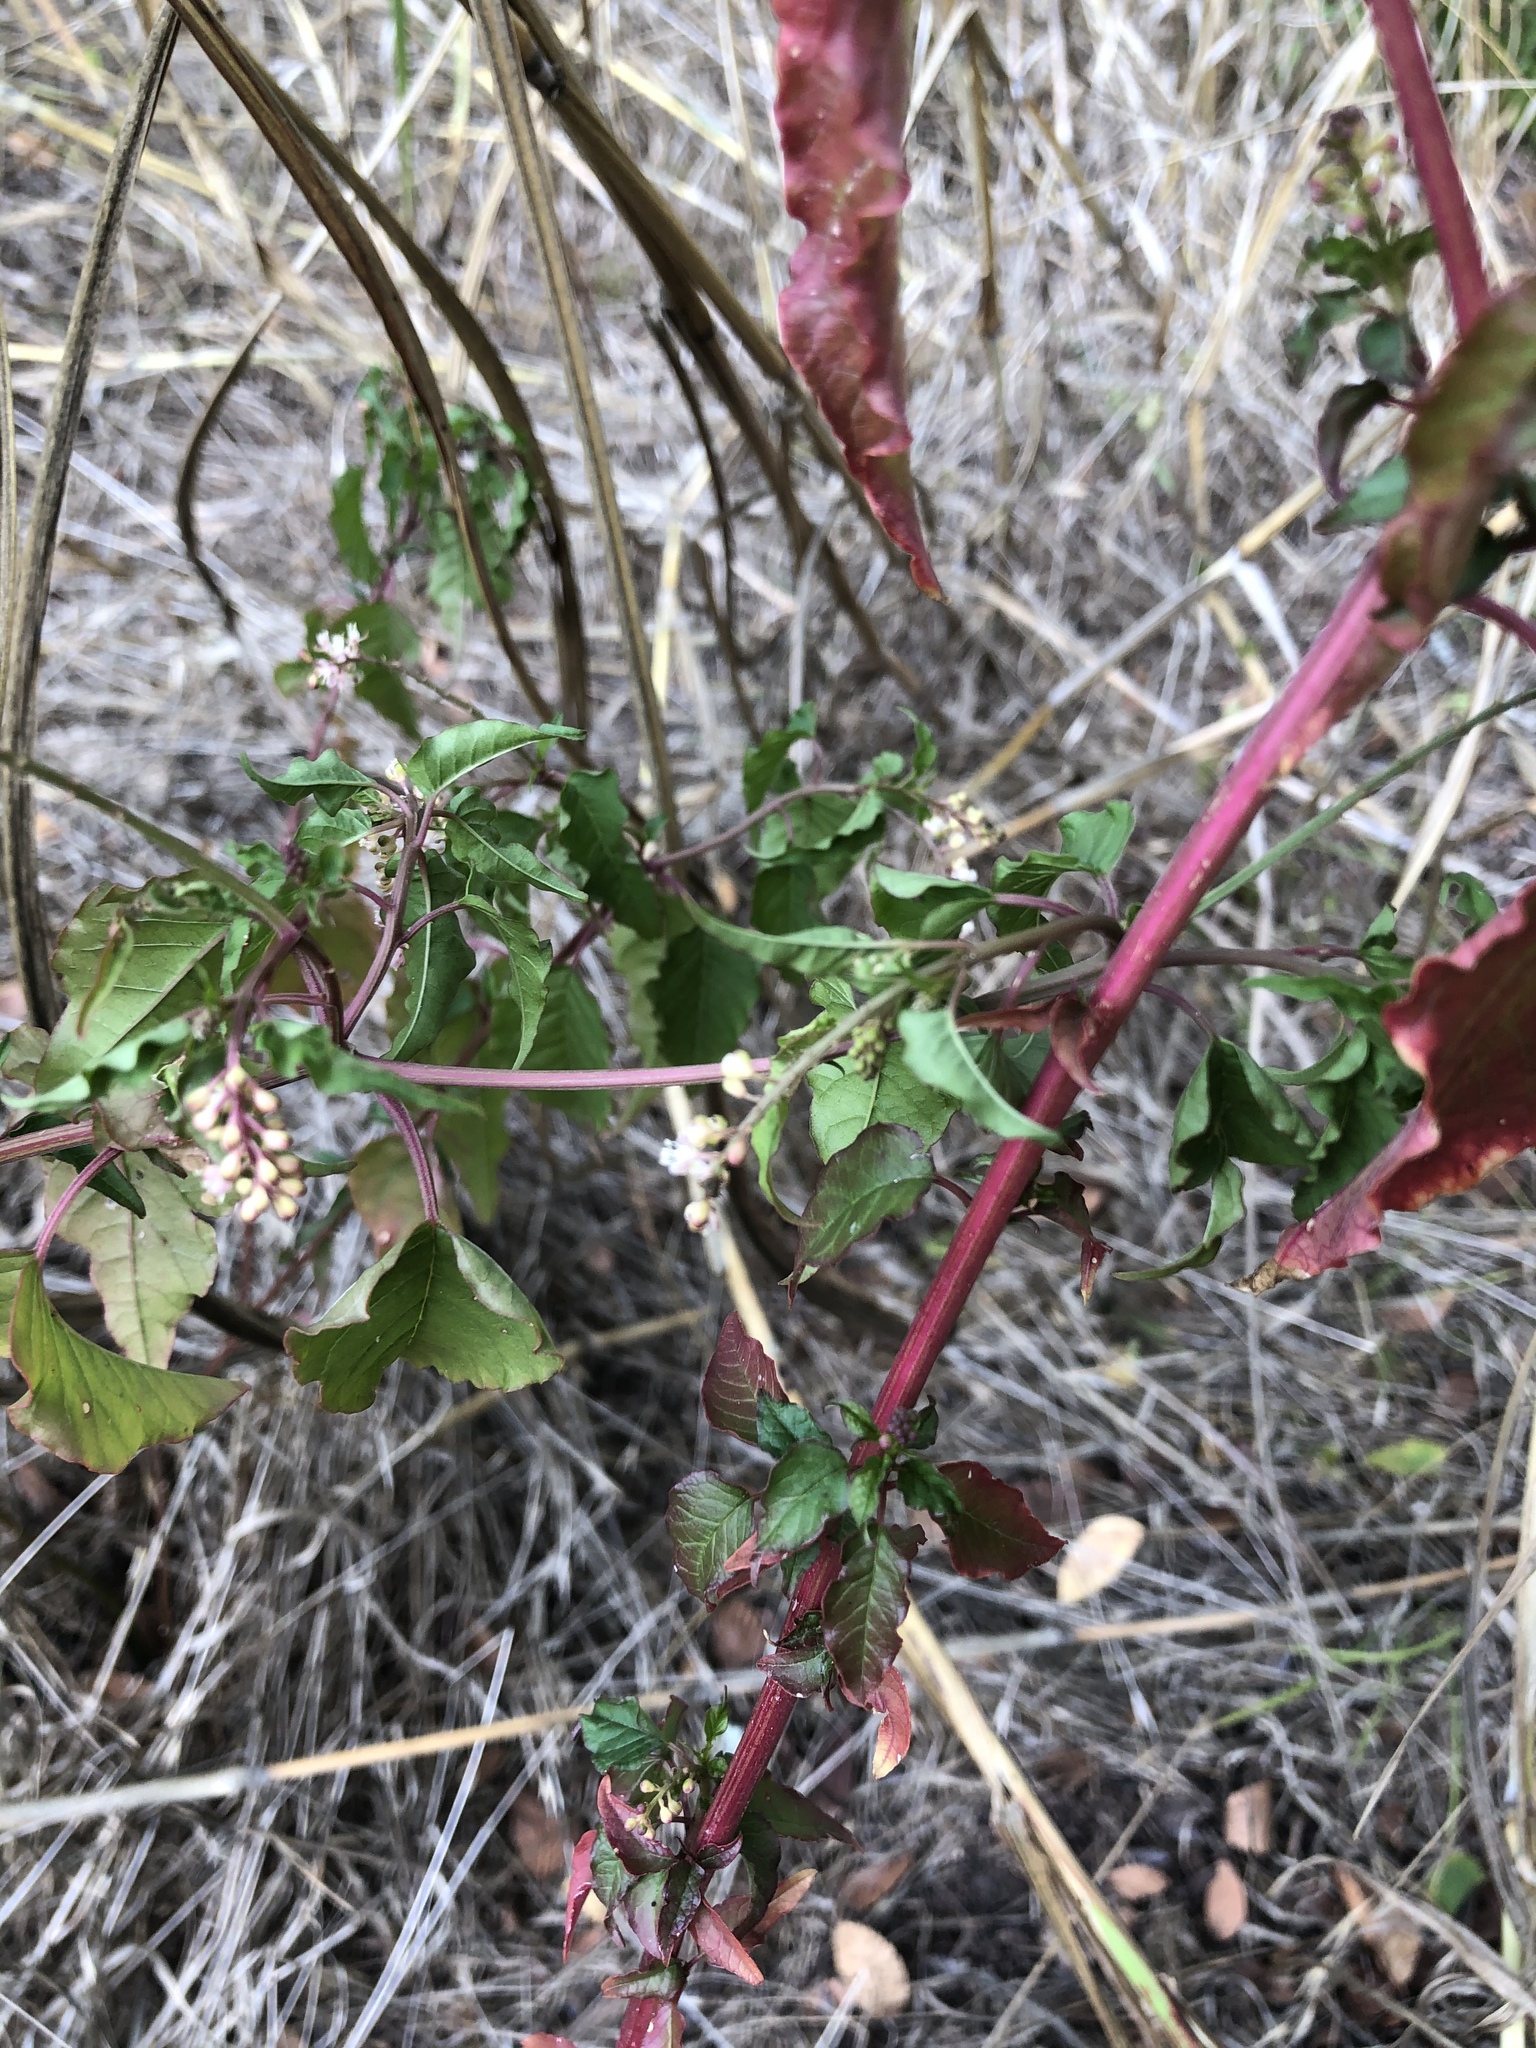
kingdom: Plantae
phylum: Tracheophyta
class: Magnoliopsida
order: Caryophyllales
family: Phytolaccaceae
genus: Rivina
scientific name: Rivina humilis
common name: Rougeplant
